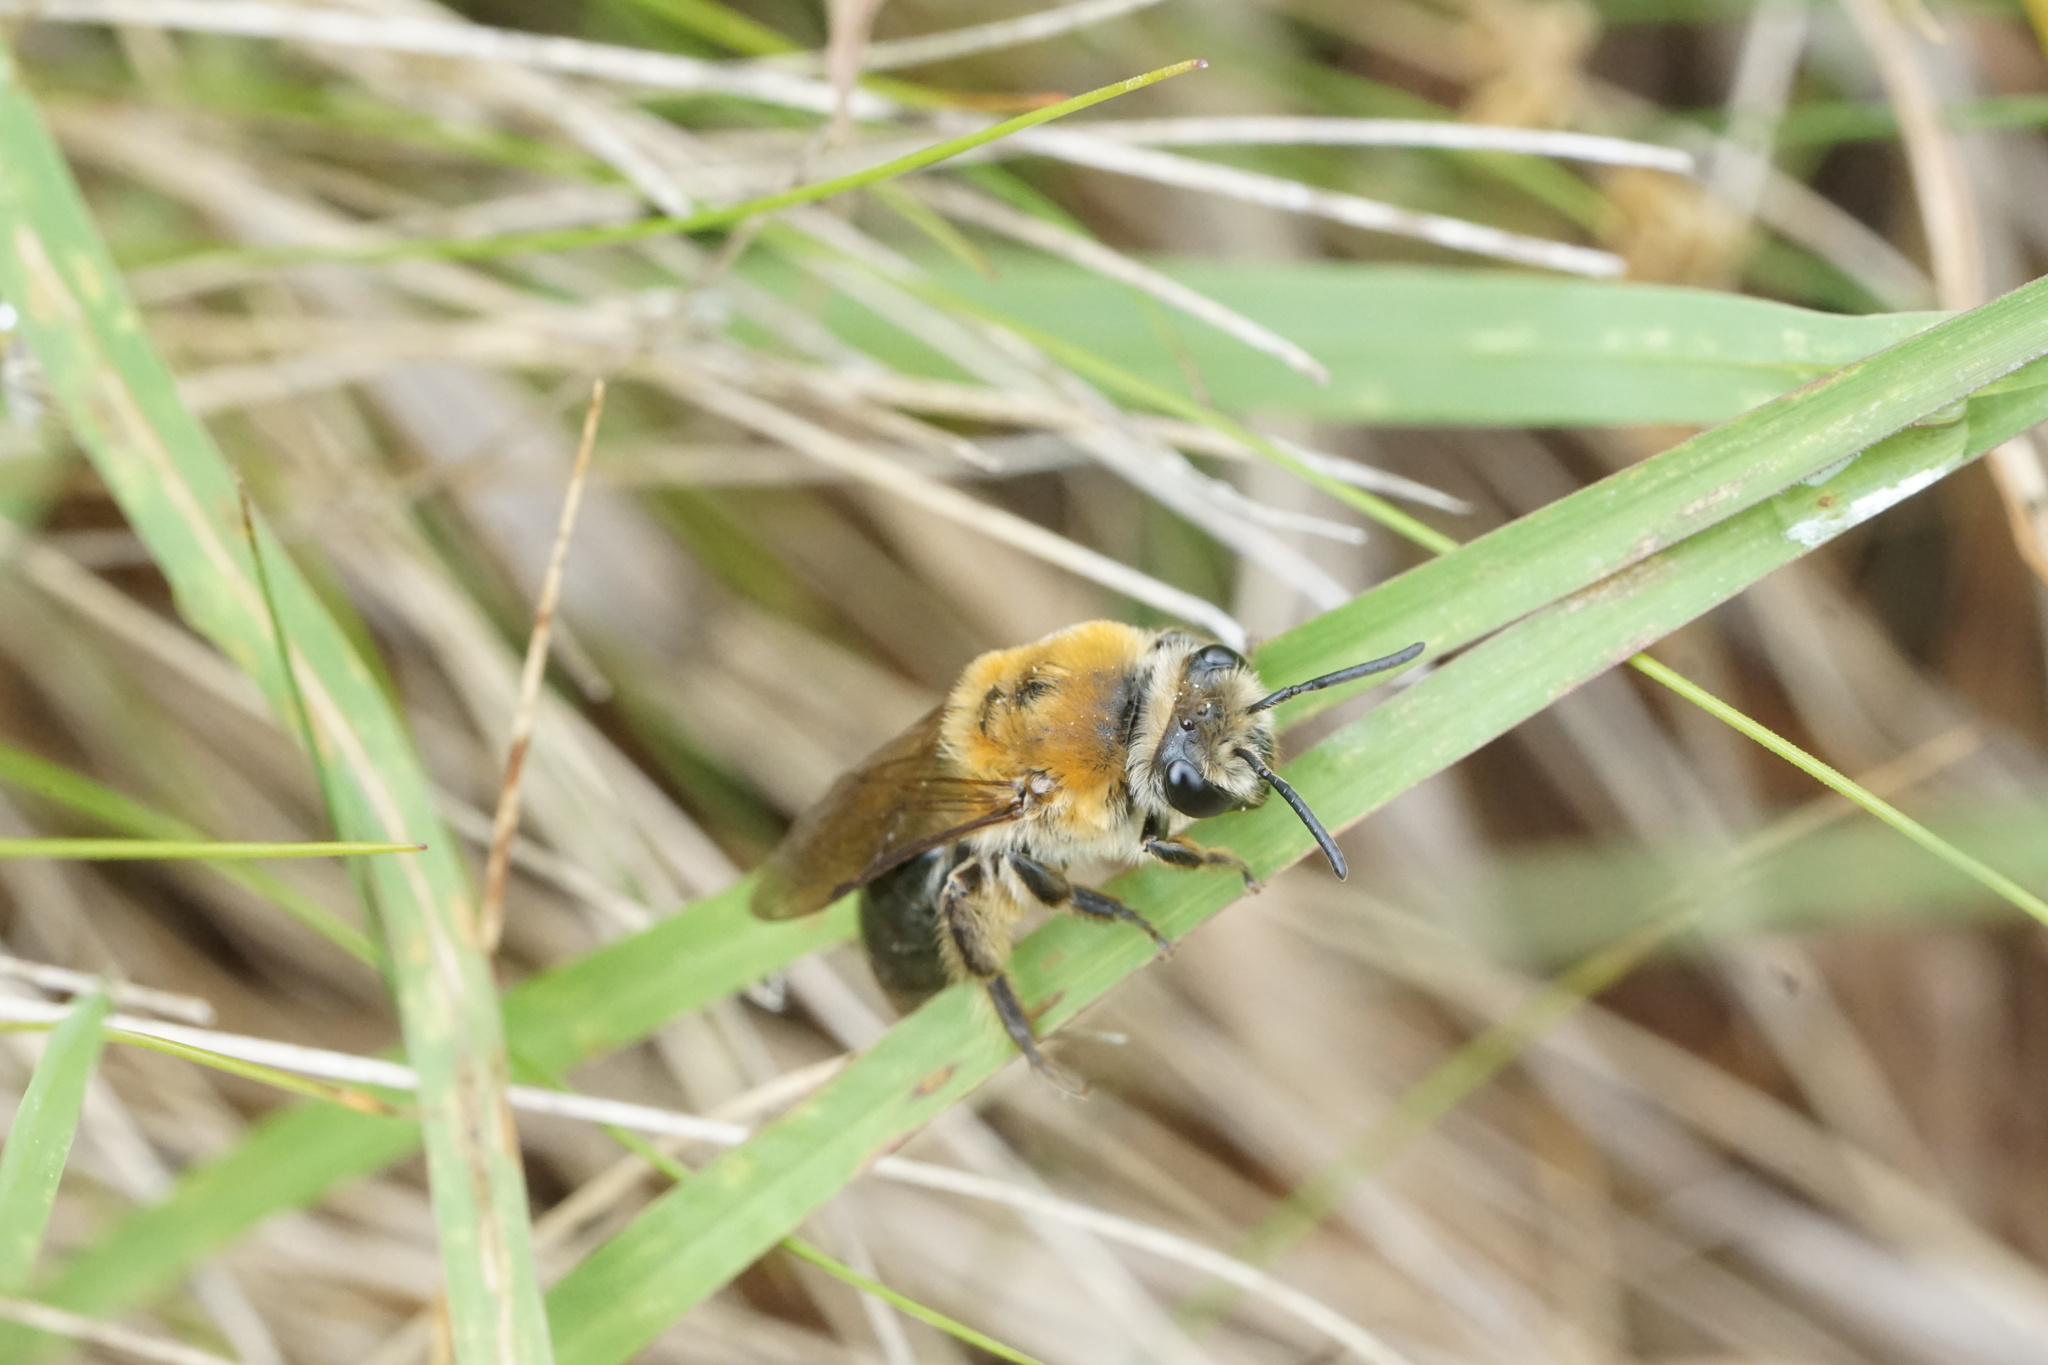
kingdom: Animalia
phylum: Arthropoda
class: Insecta
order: Hymenoptera
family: Colletidae
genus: Colletes
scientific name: Colletes thoracicus
